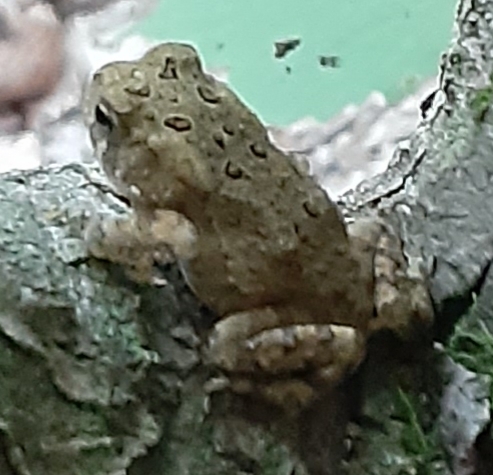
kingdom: Animalia
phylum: Chordata
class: Amphibia
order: Anura
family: Bufonidae
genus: Anaxyrus
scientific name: Anaxyrus americanus
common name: American toad
